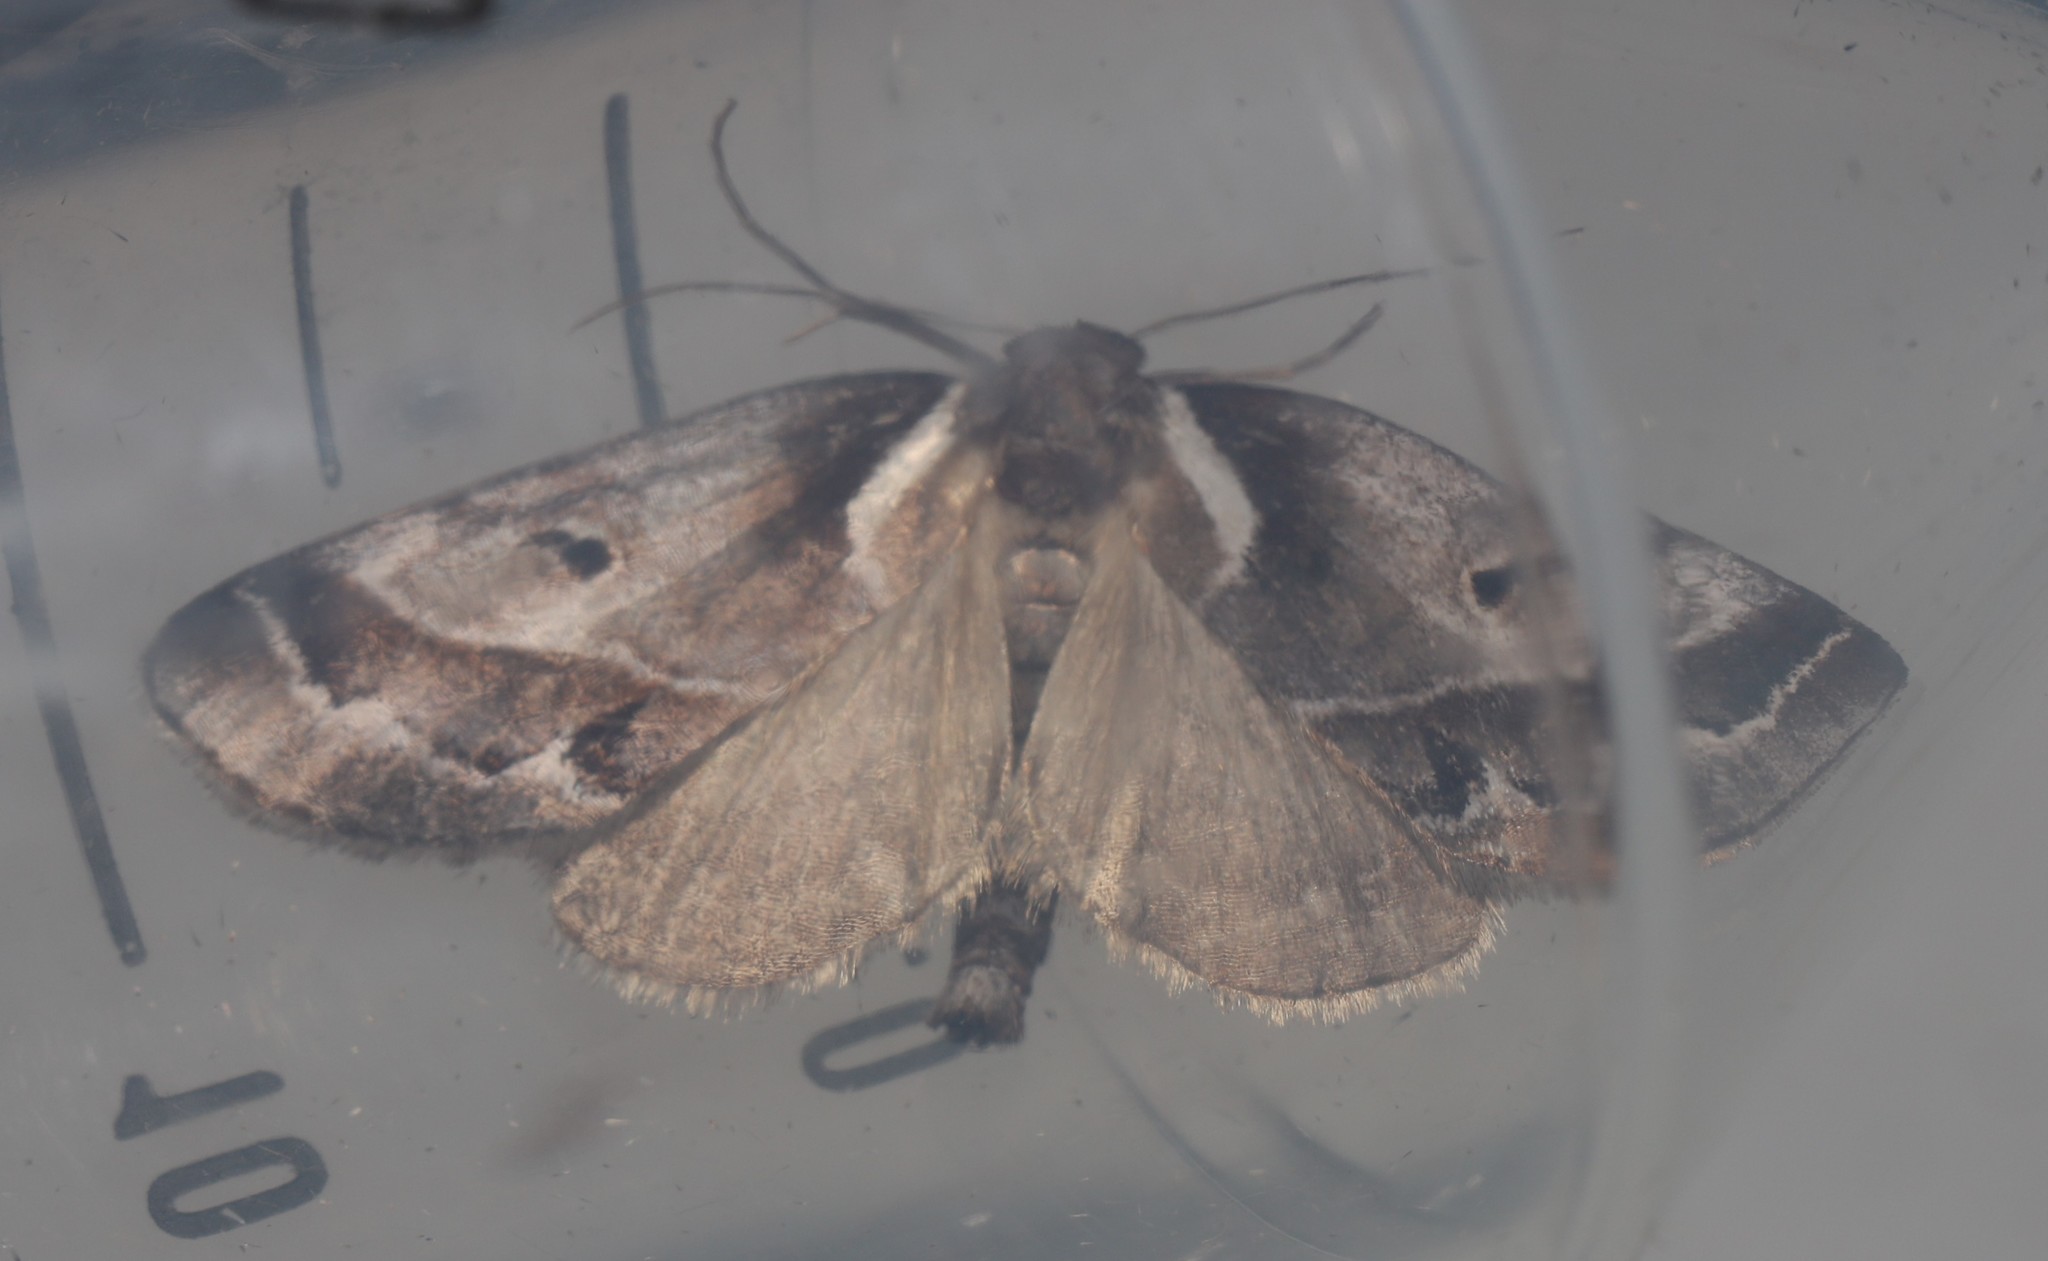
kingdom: Animalia
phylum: Arthropoda
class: Insecta
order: Lepidoptera
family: Nolidae
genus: Baileya
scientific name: Baileya doubledayi
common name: Doubleday's baileya moth
